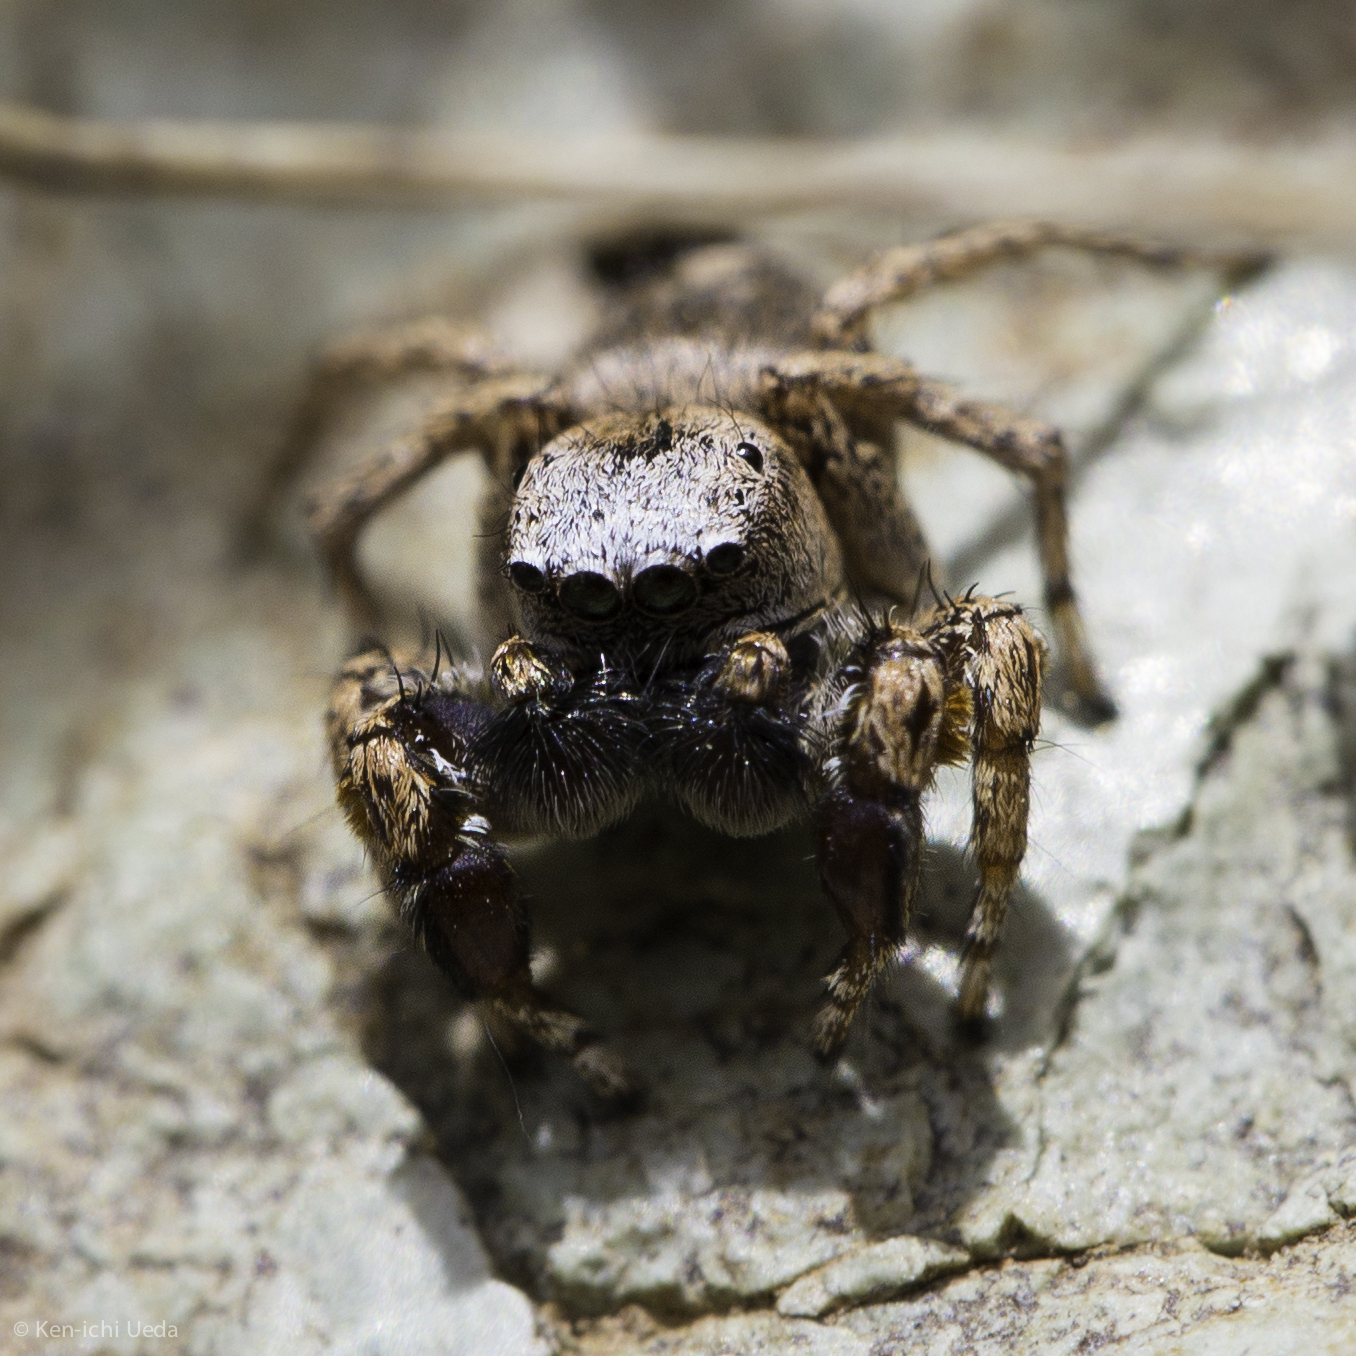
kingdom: Animalia
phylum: Arthropoda
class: Arachnida
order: Araneae
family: Salticidae
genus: Habronattus
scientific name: Habronattus oregonensis
